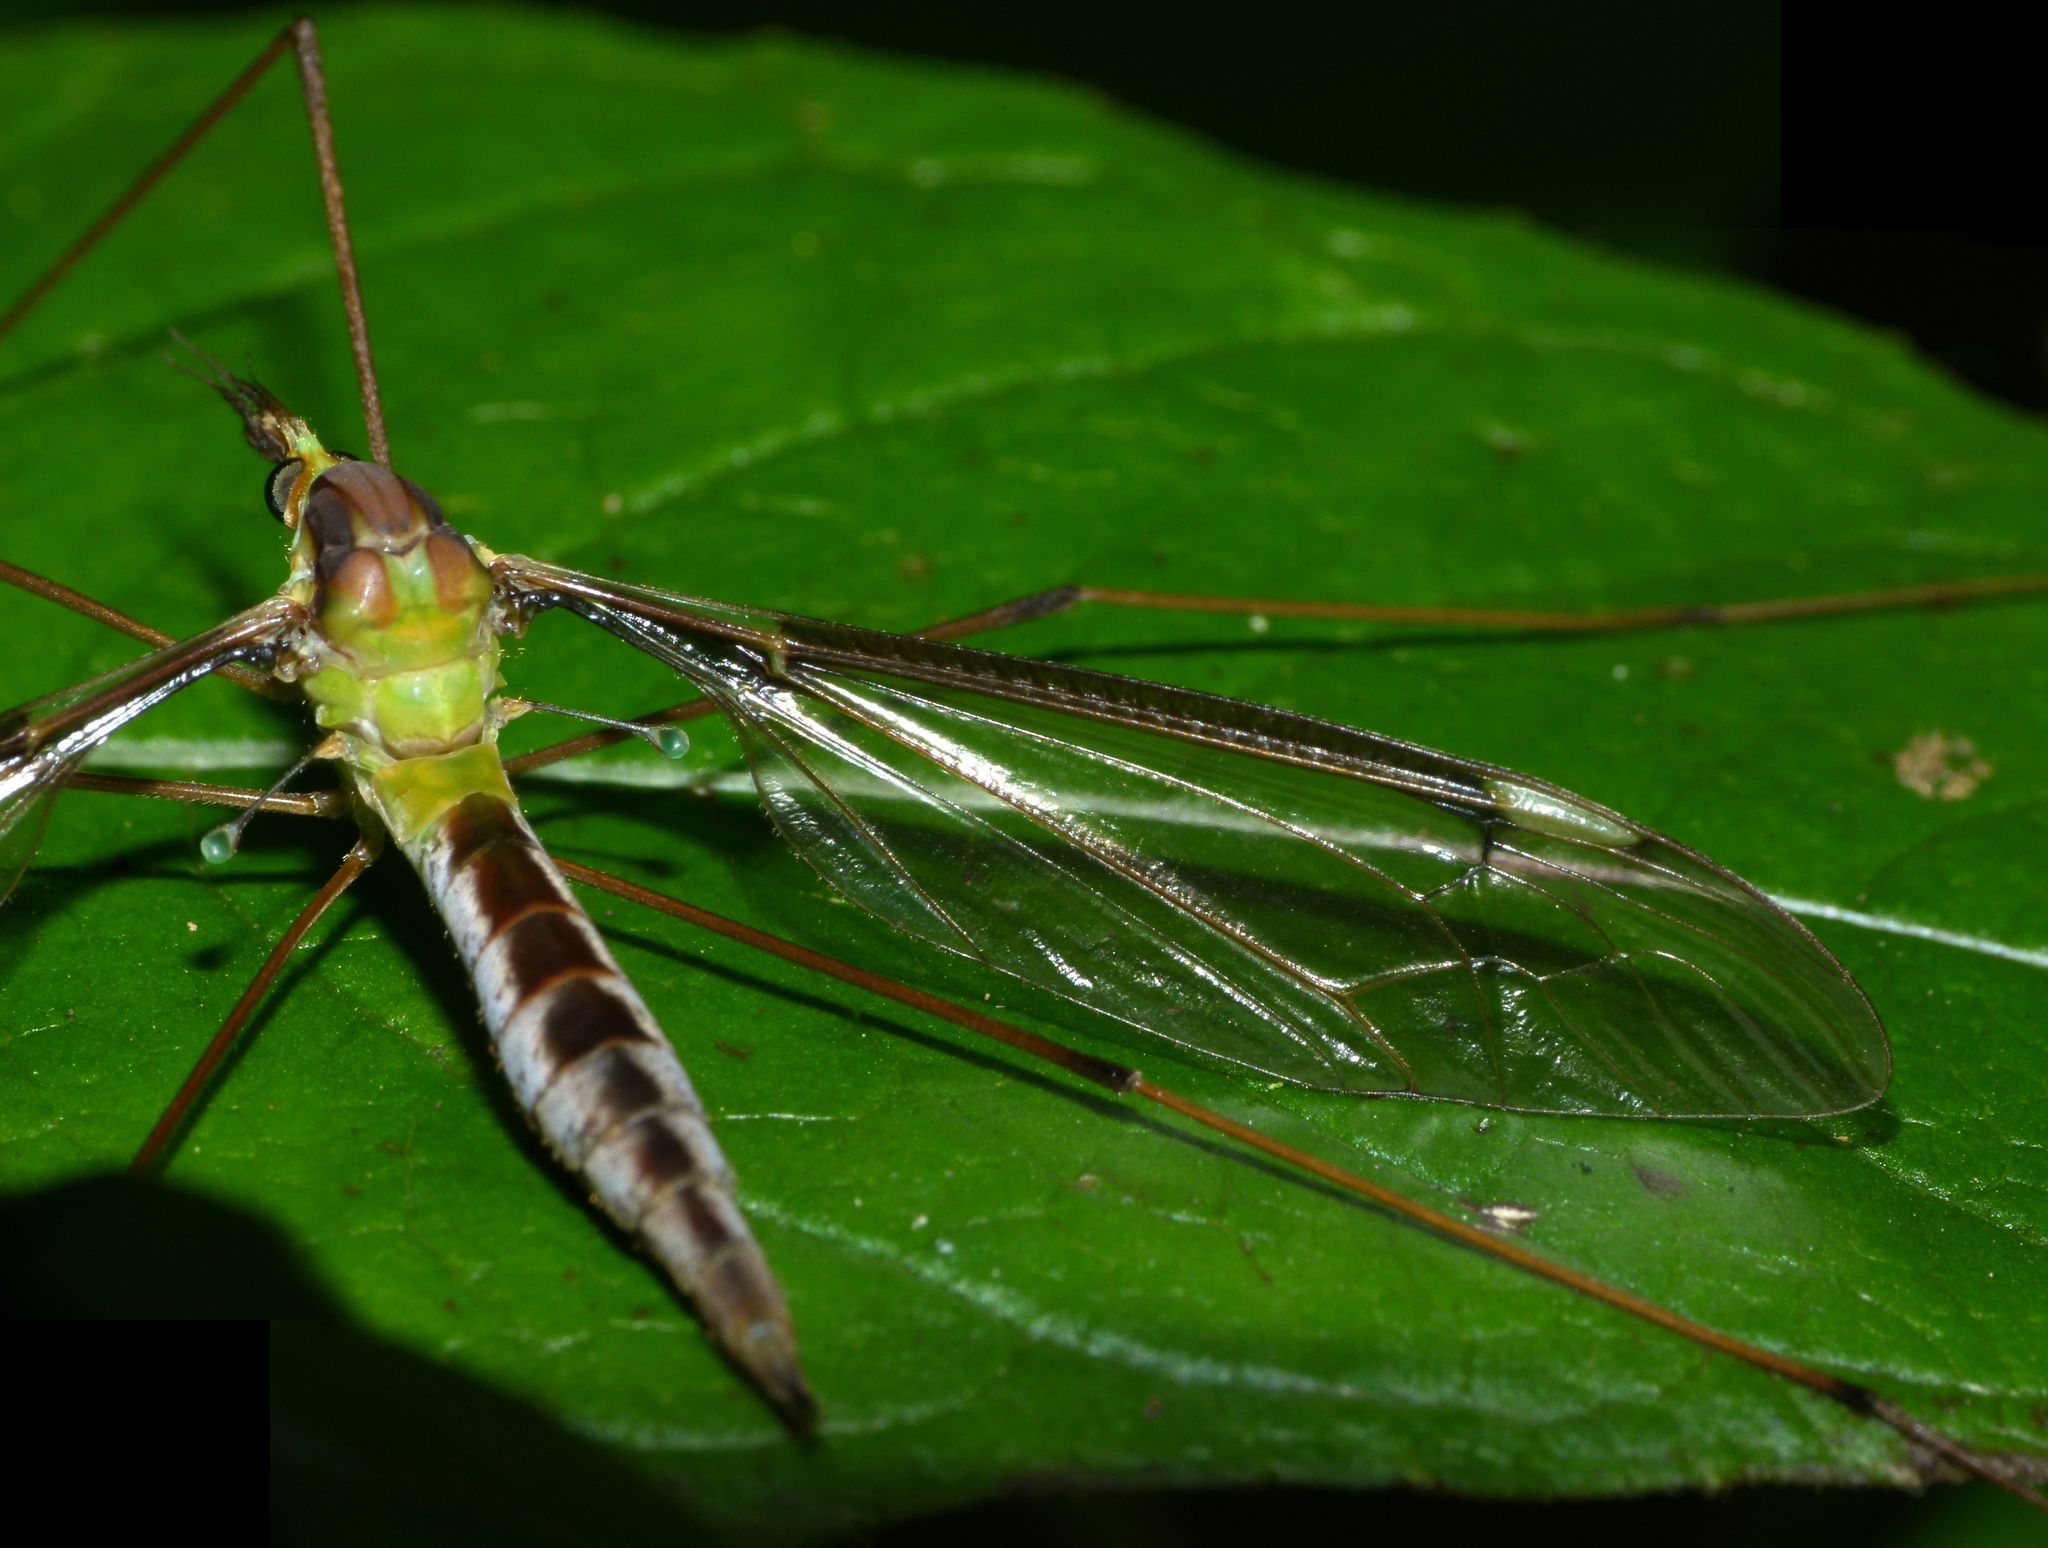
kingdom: Animalia
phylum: Arthropoda
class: Insecta
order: Diptera
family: Tipulidae
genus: Leptotarsus
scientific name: Leptotarsus albistigma
